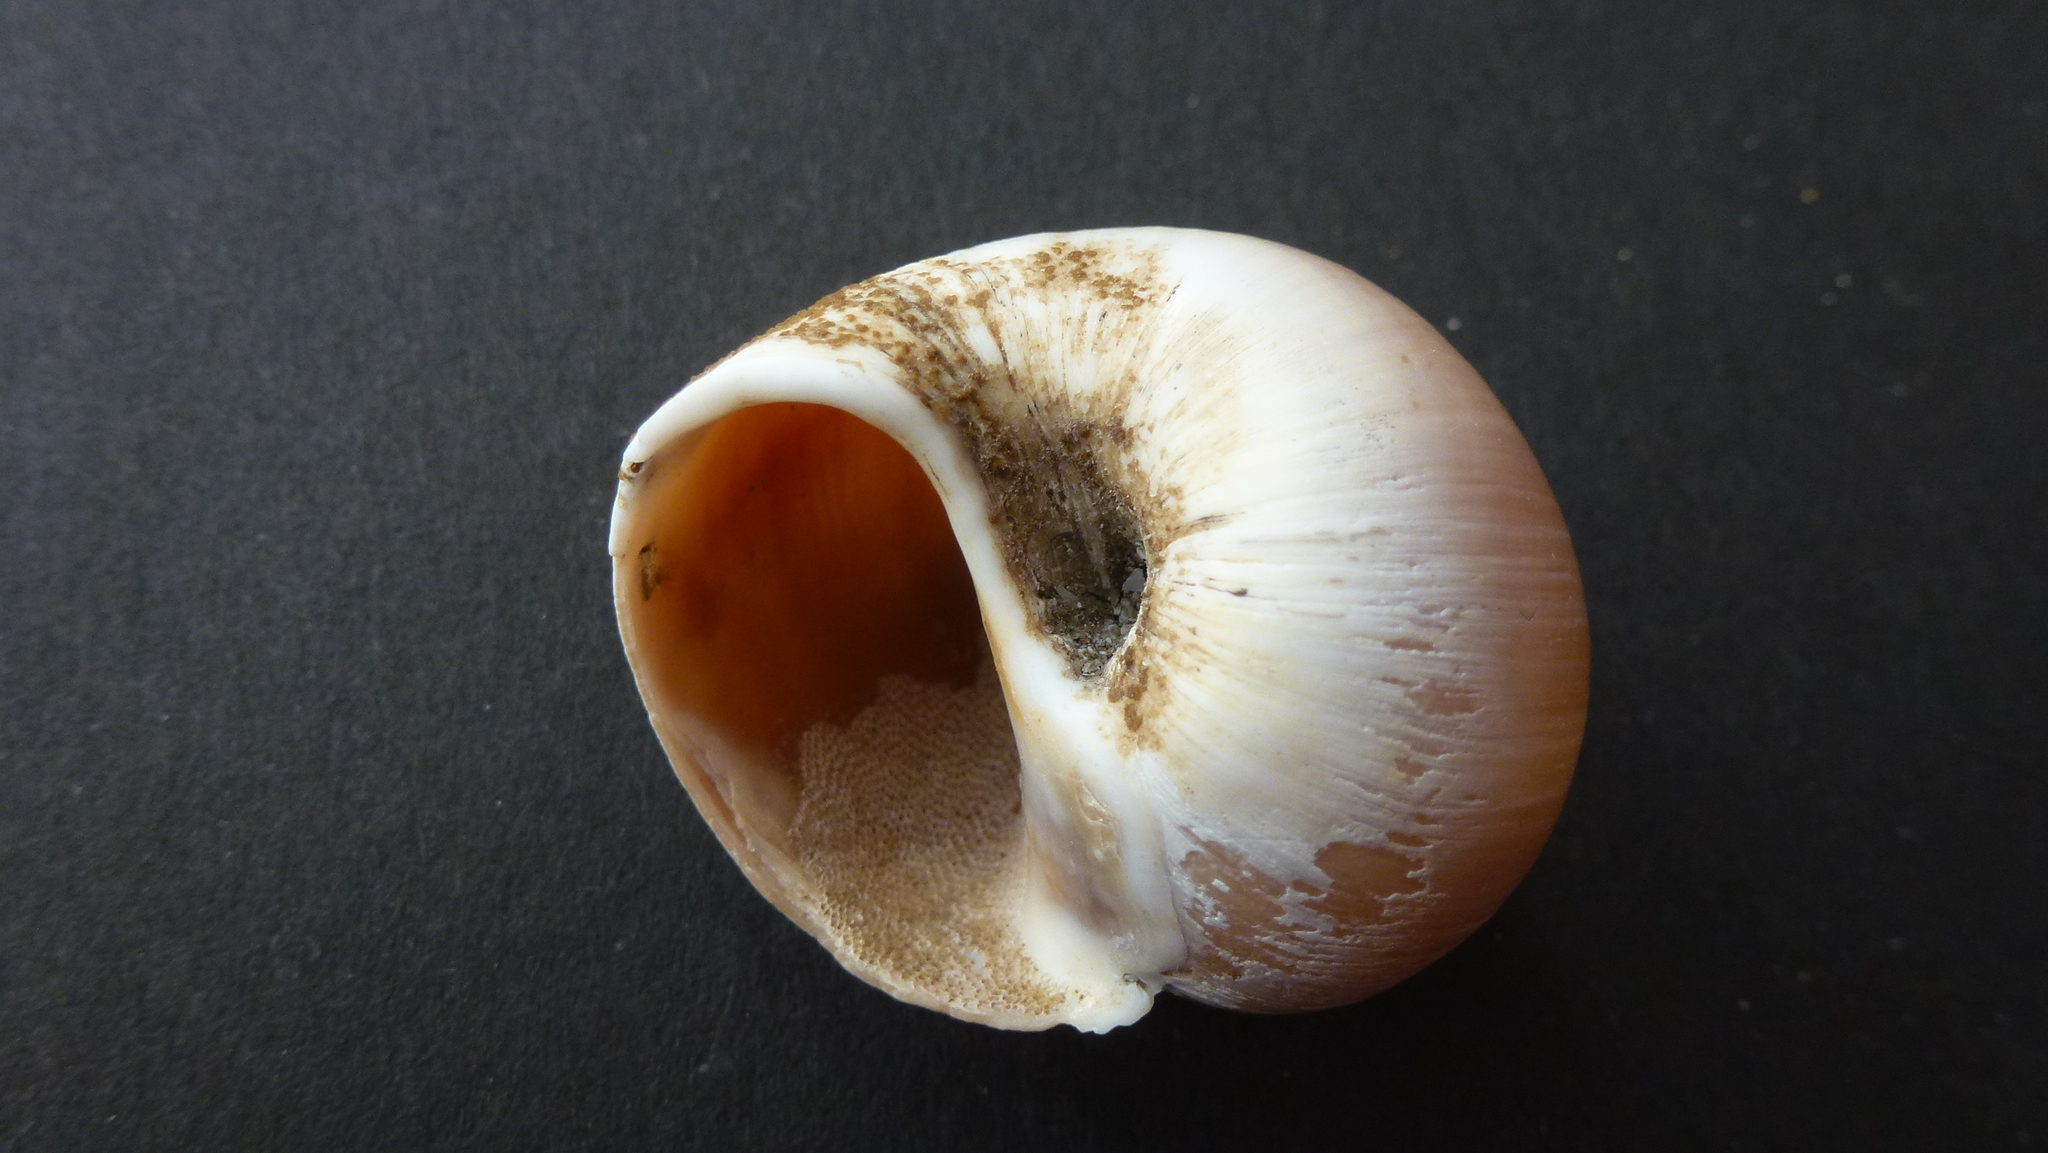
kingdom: Animalia
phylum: Mollusca
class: Gastropoda
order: Littorinimorpha
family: Naticidae
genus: Euspira
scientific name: Euspira catena
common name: Necklace shell
